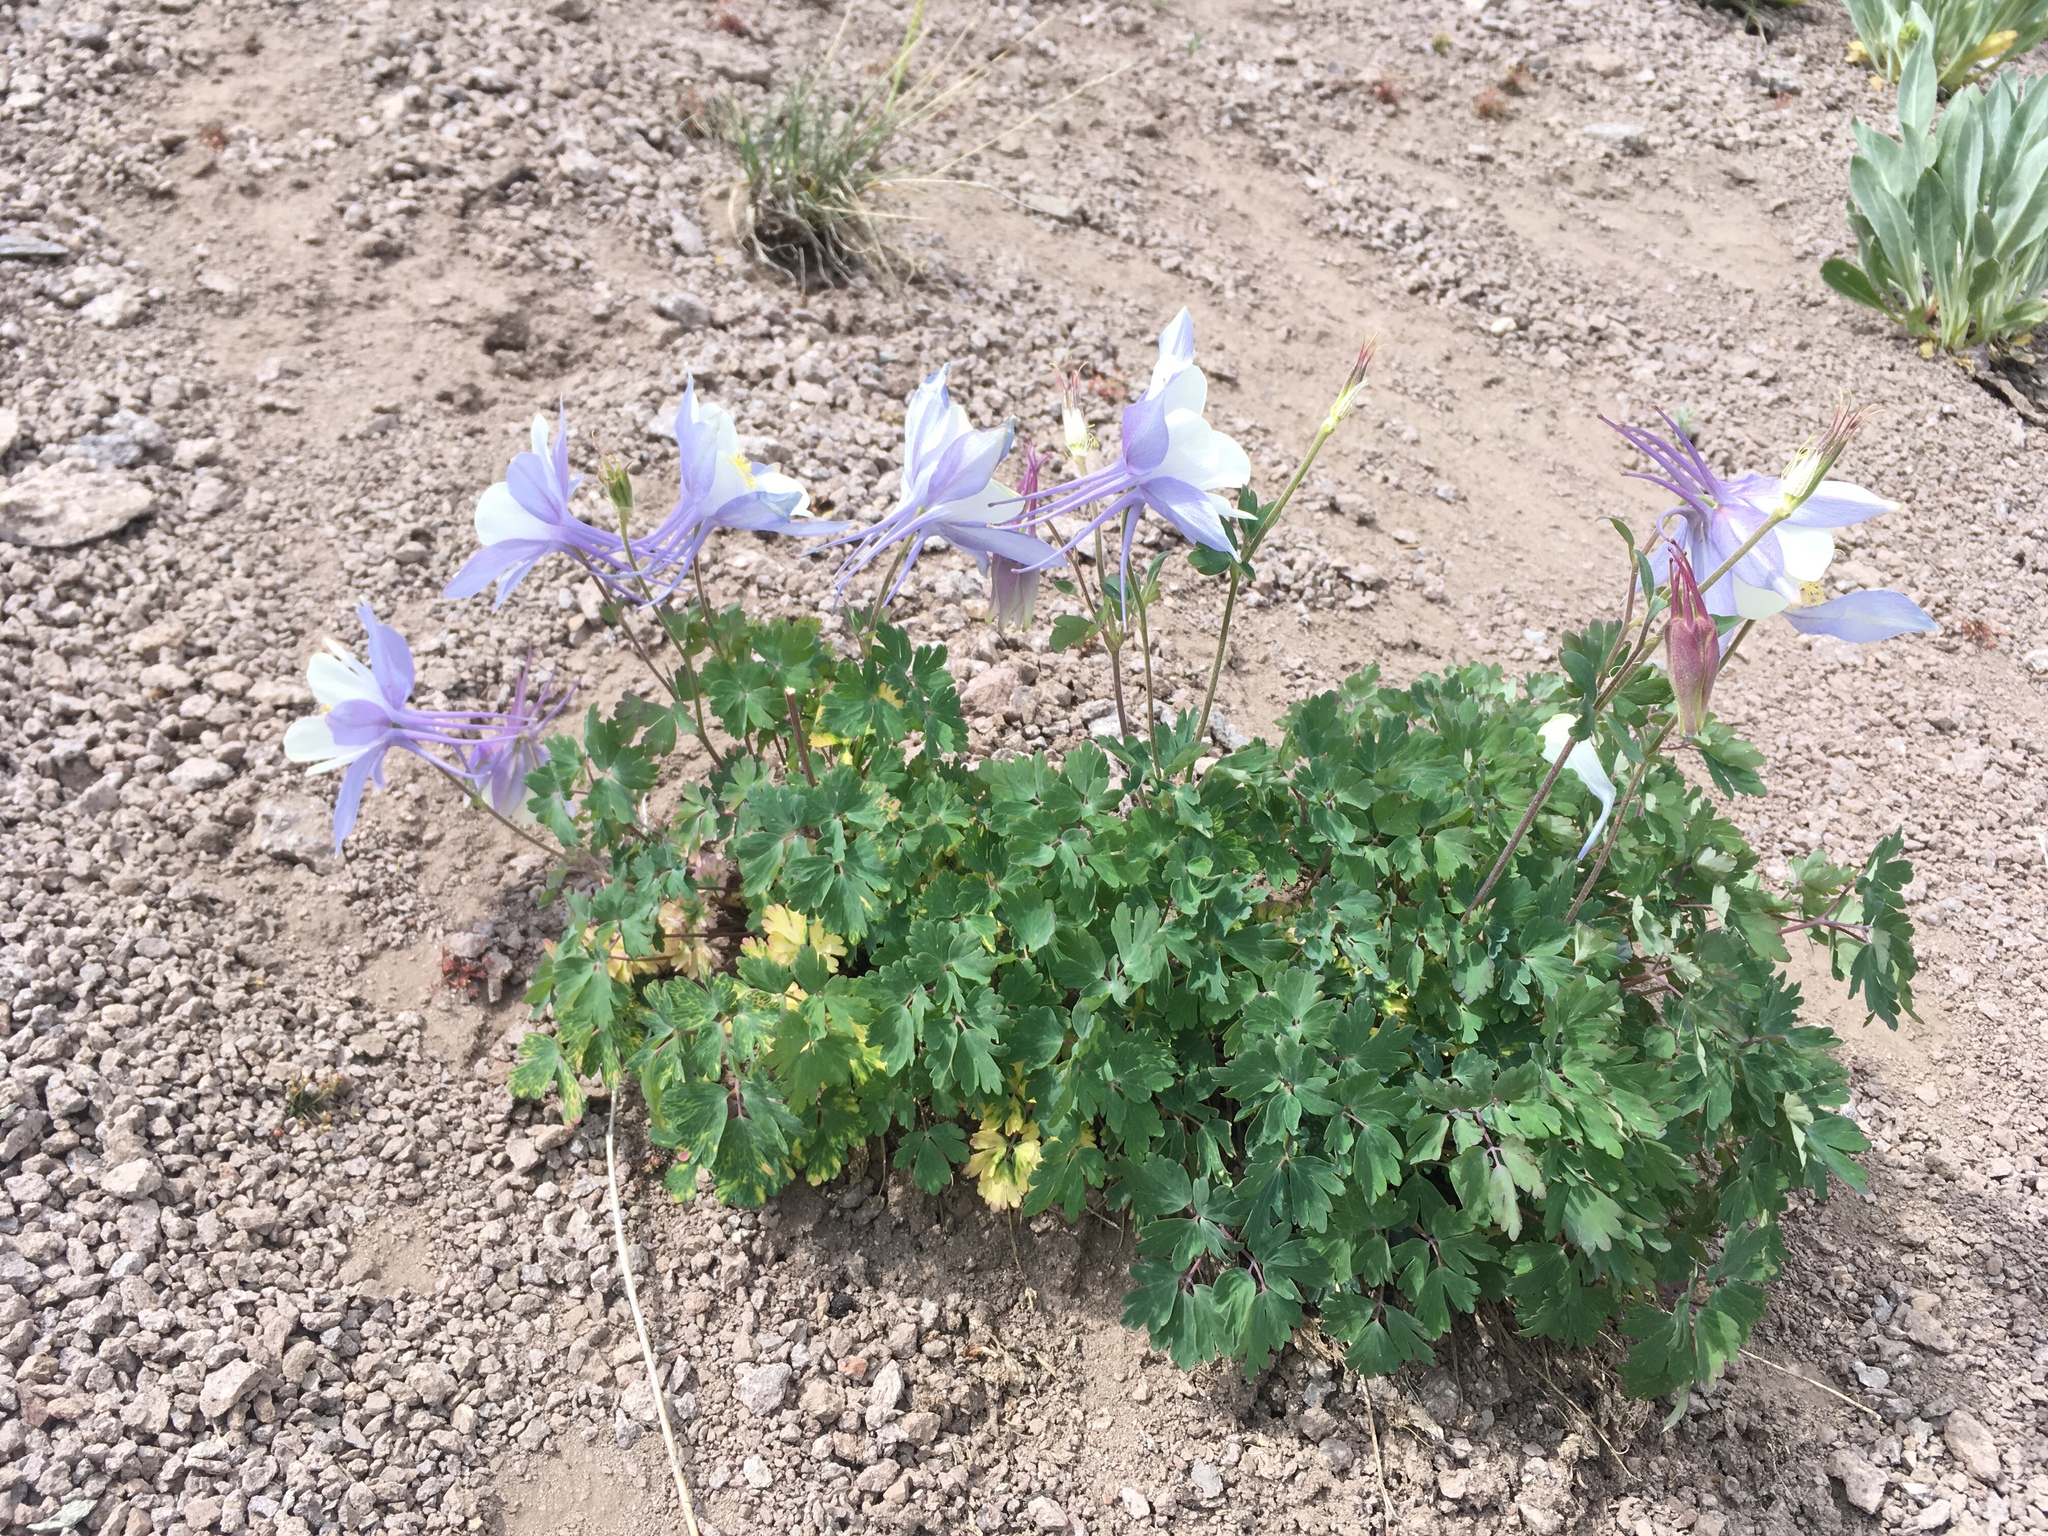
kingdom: Plantae
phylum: Tracheophyta
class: Magnoliopsida
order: Ranunculales
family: Ranunculaceae
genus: Aquilegia
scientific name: Aquilegia coerulea
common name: Rocky mountain columbine
